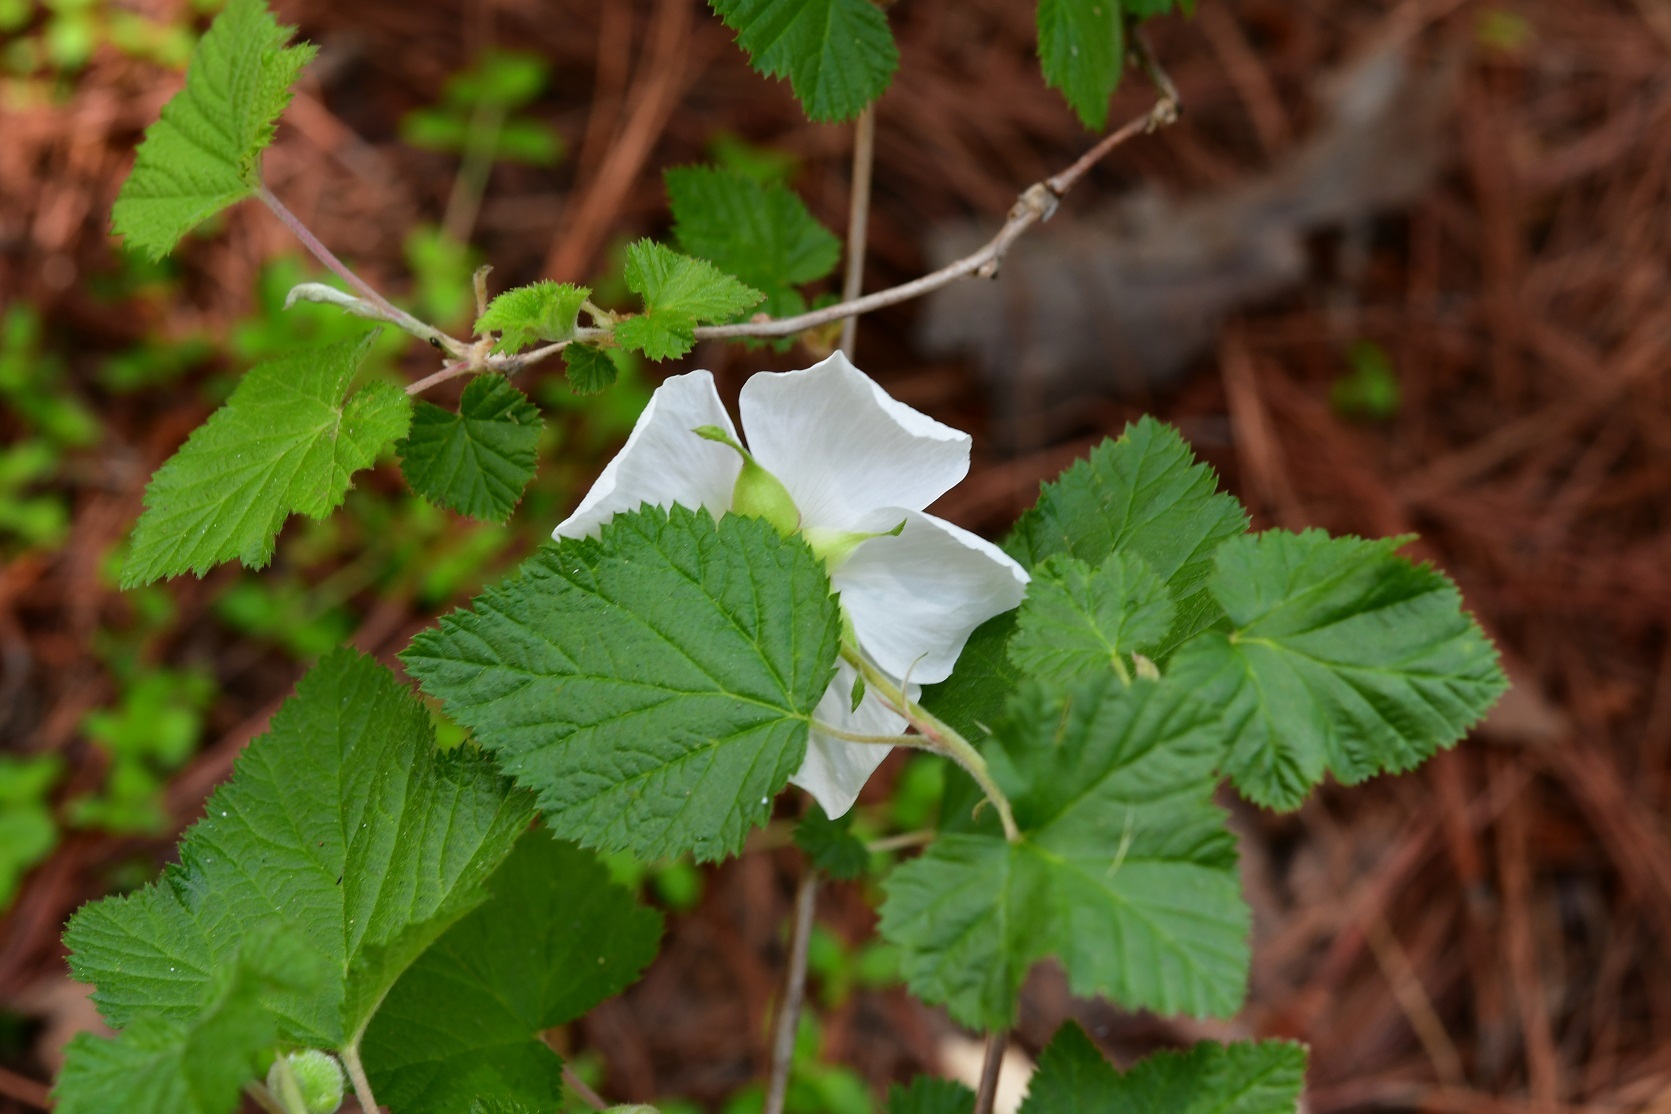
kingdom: Plantae
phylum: Tracheophyta
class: Magnoliopsida
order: Rosales
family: Rosaceae
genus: Rubus
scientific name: Rubus trilobus
